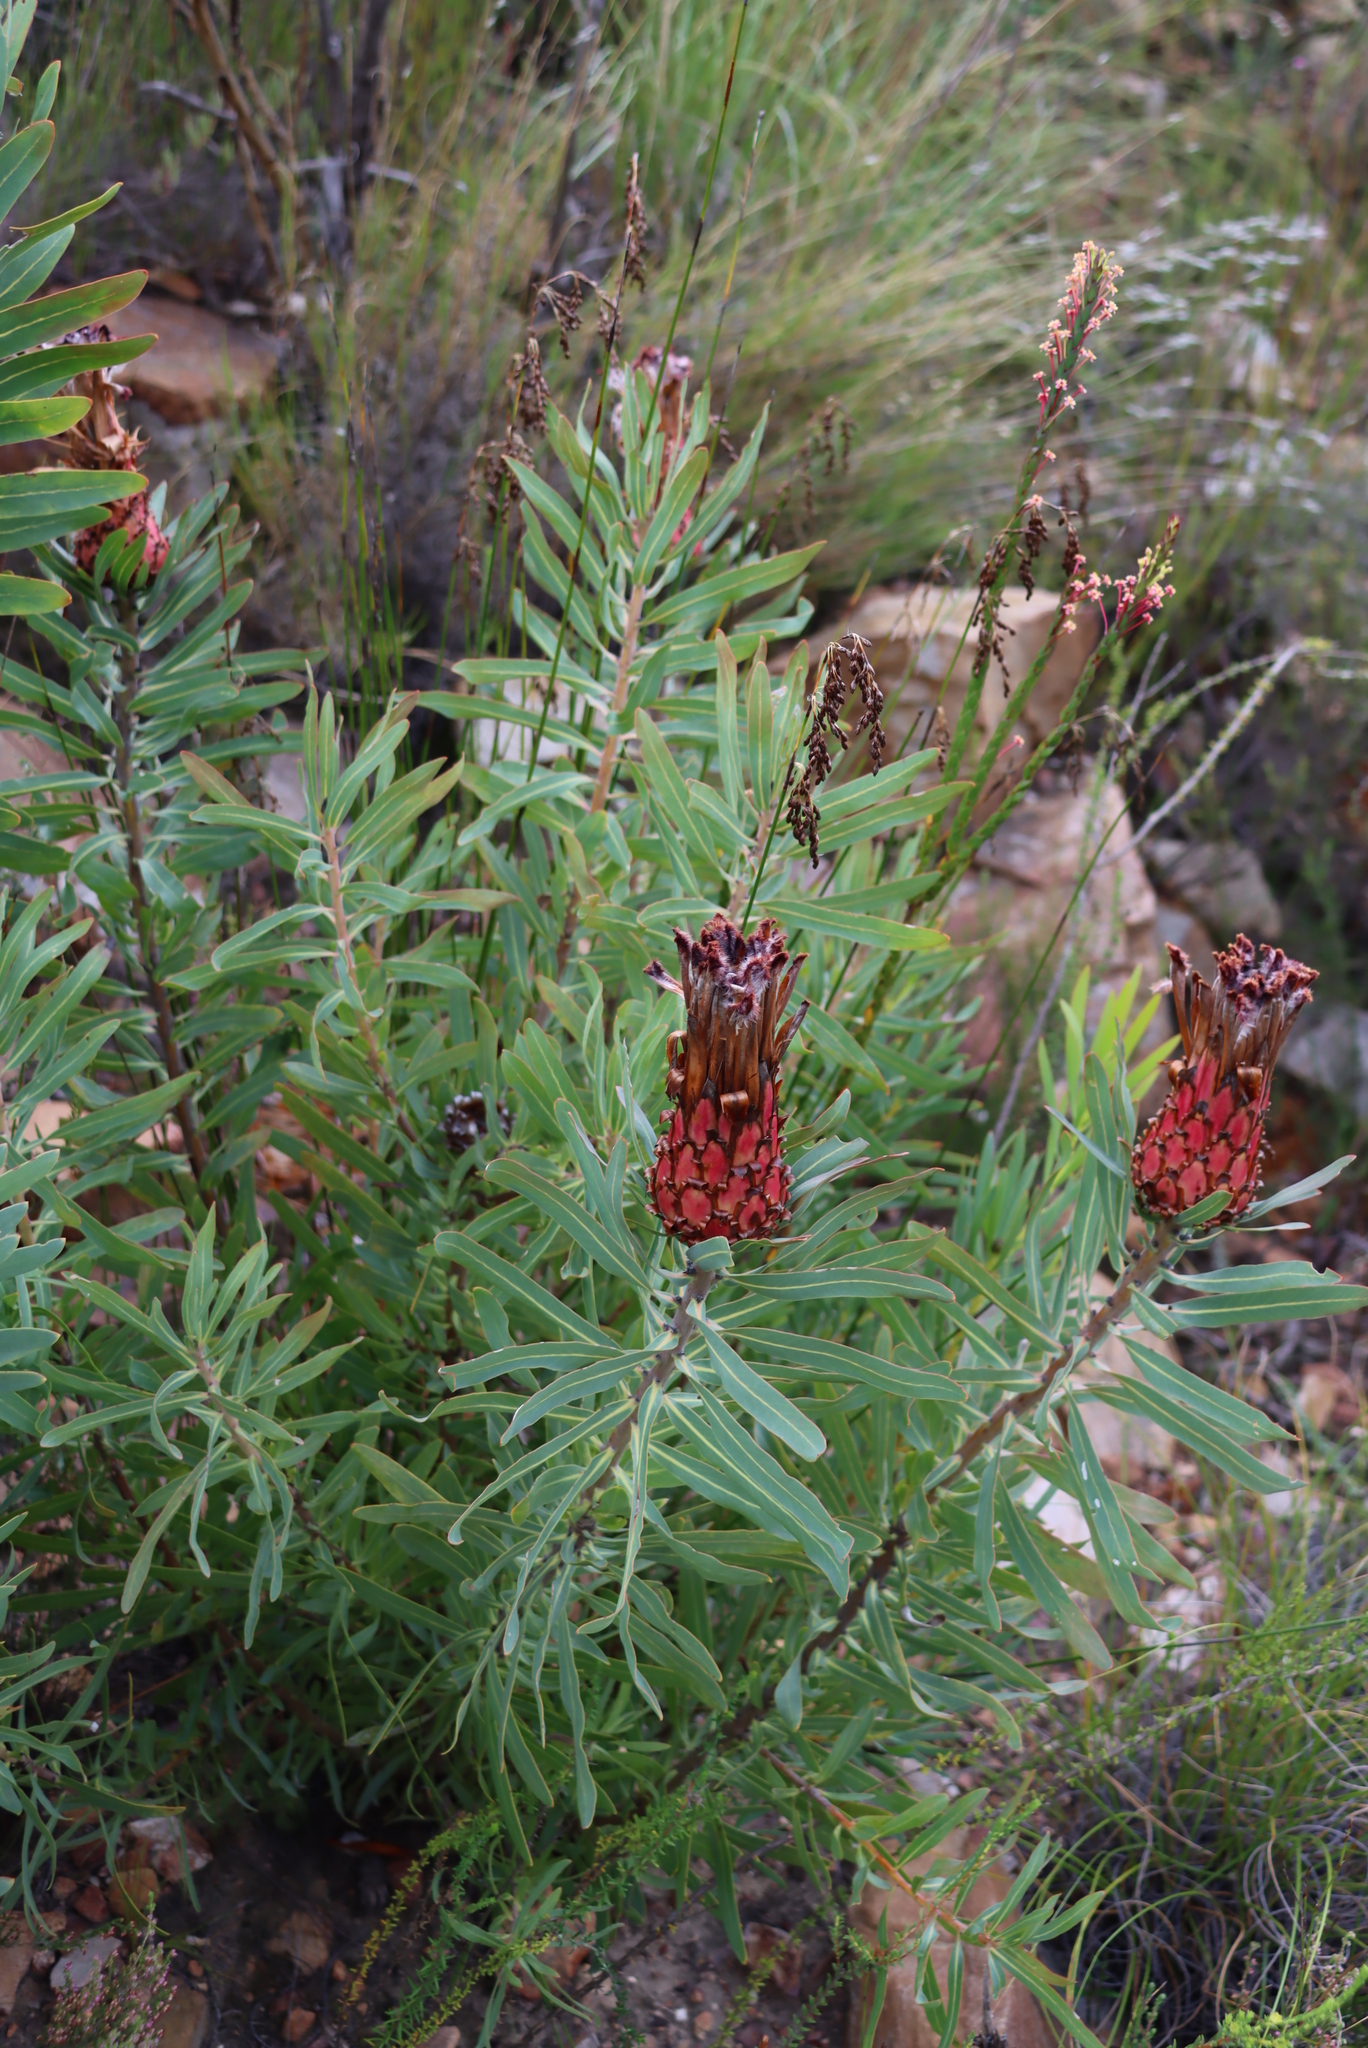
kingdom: Plantae
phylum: Tracheophyta
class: Magnoliopsida
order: Proteales
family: Proteaceae
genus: Protea
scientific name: Protea neriifolia
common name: Blue sugarbush
